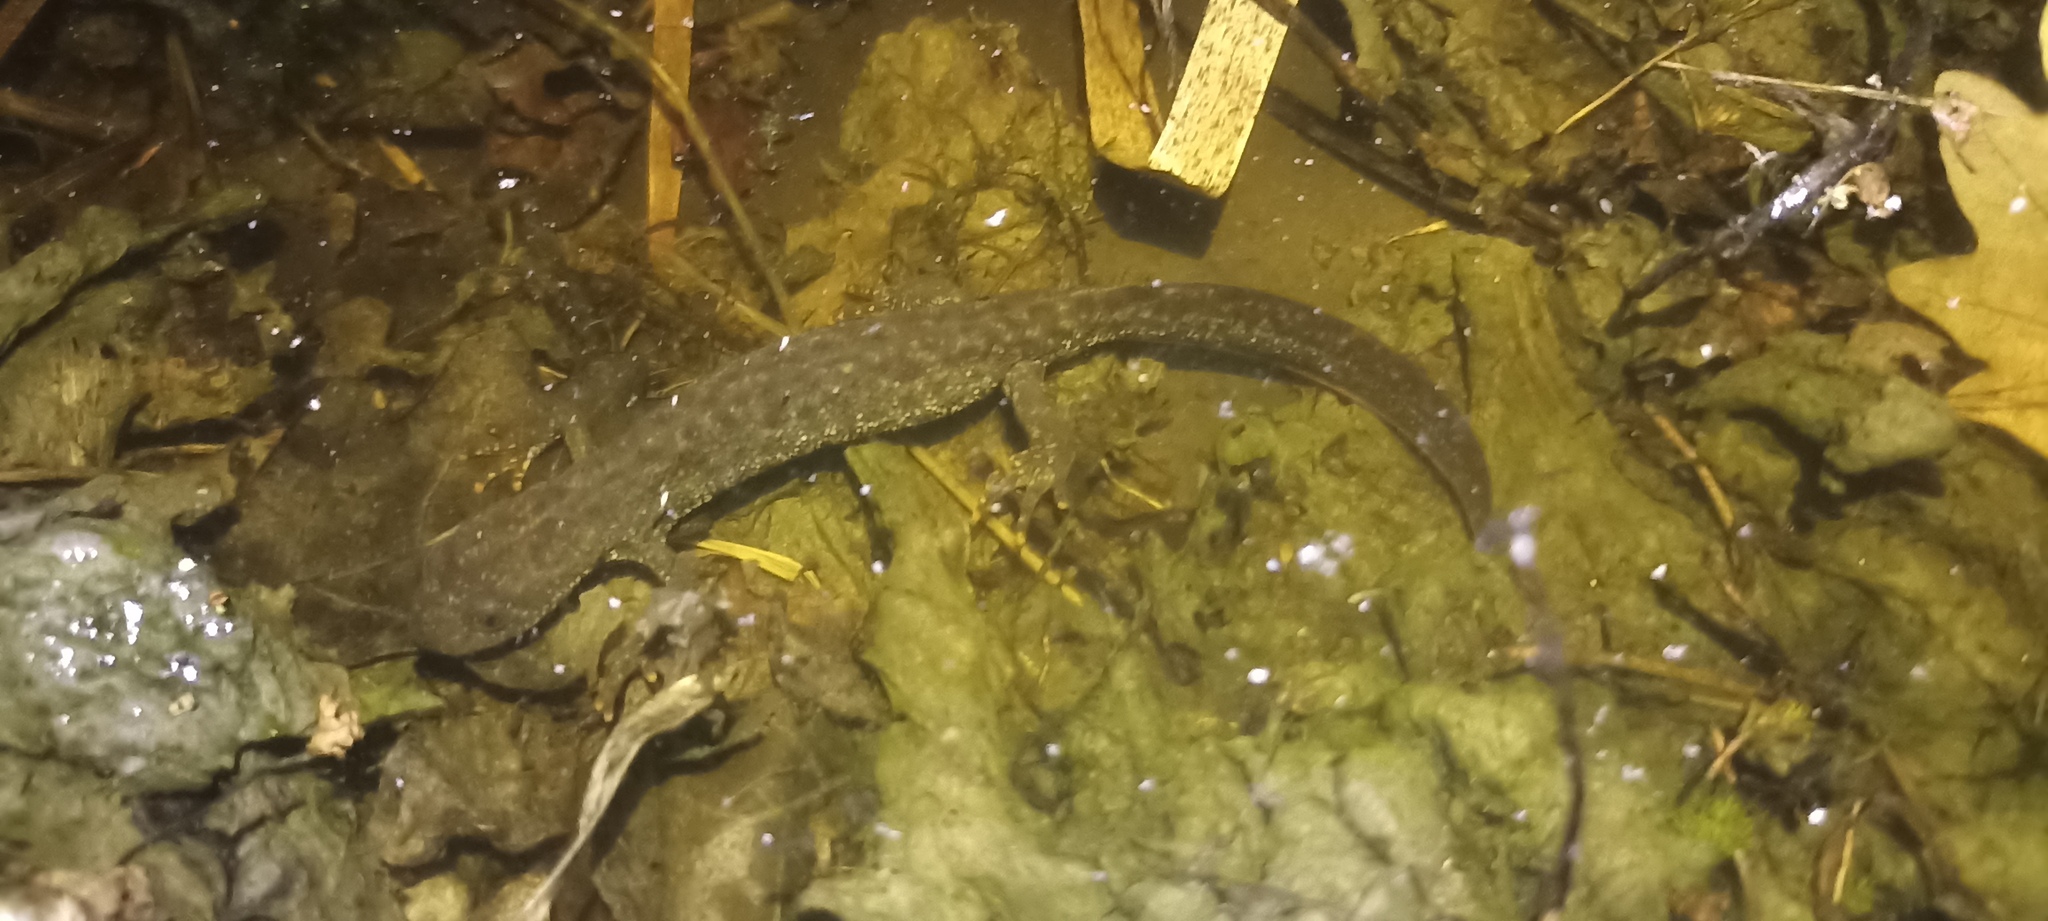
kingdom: Animalia
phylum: Chordata
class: Amphibia
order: Caudata
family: Salamandridae
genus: Triturus
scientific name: Triturus cristatus
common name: Crested newt
